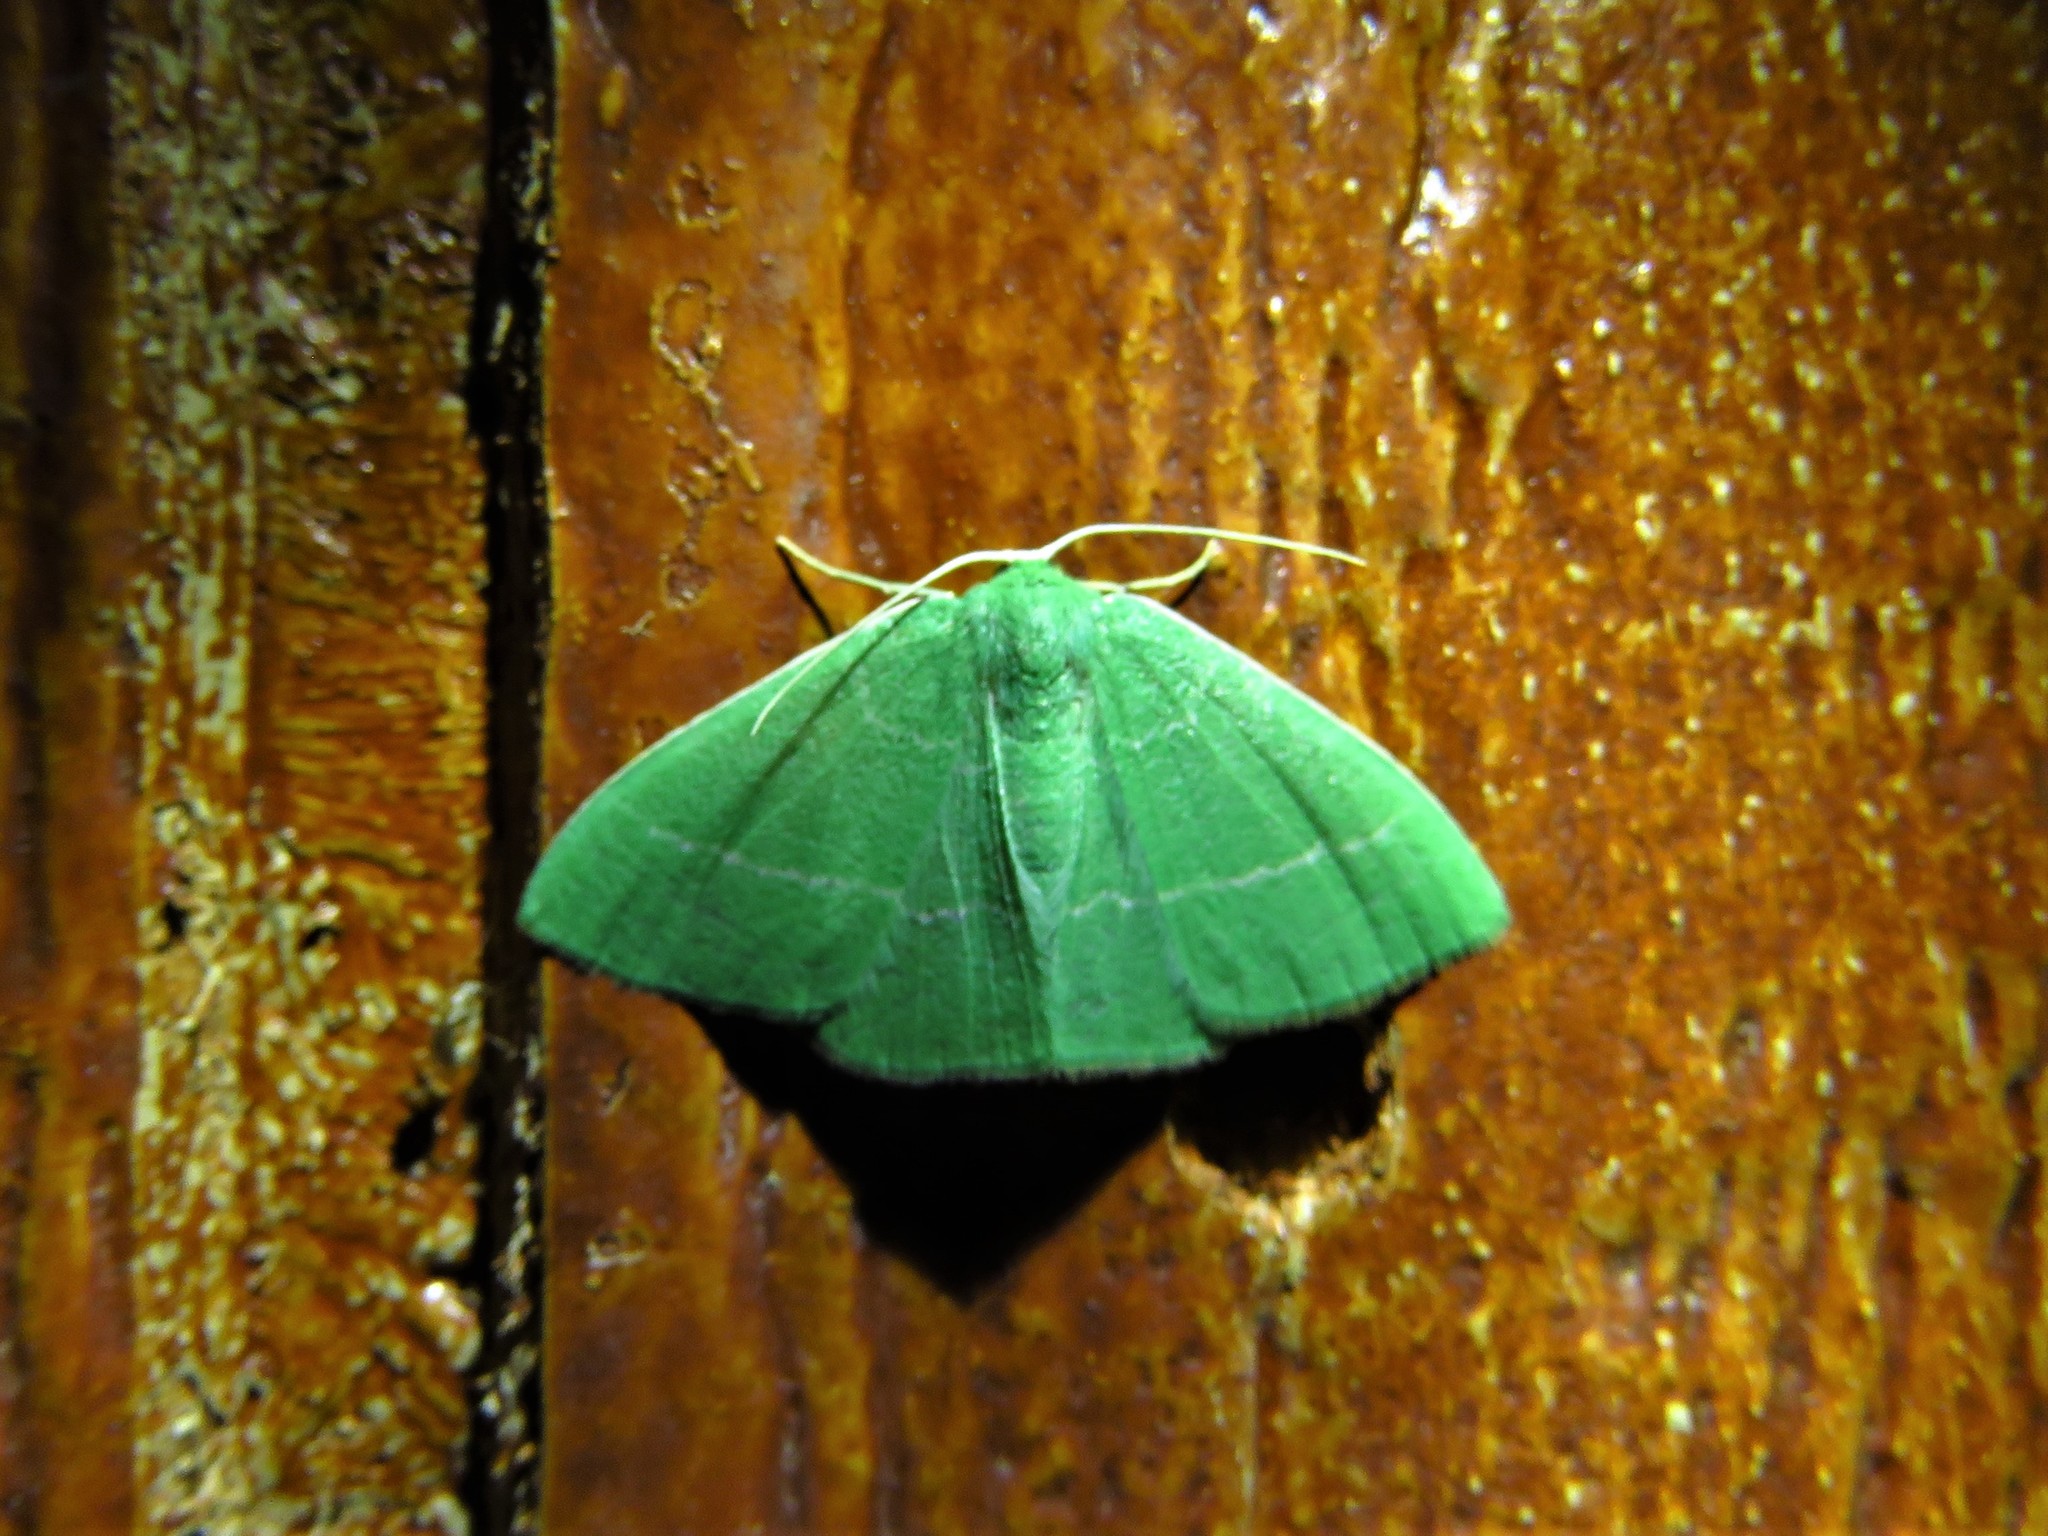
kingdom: Animalia
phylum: Arthropoda
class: Insecta
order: Lepidoptera
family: Geometridae
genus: Nemoria
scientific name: Nemoria zygotaria
